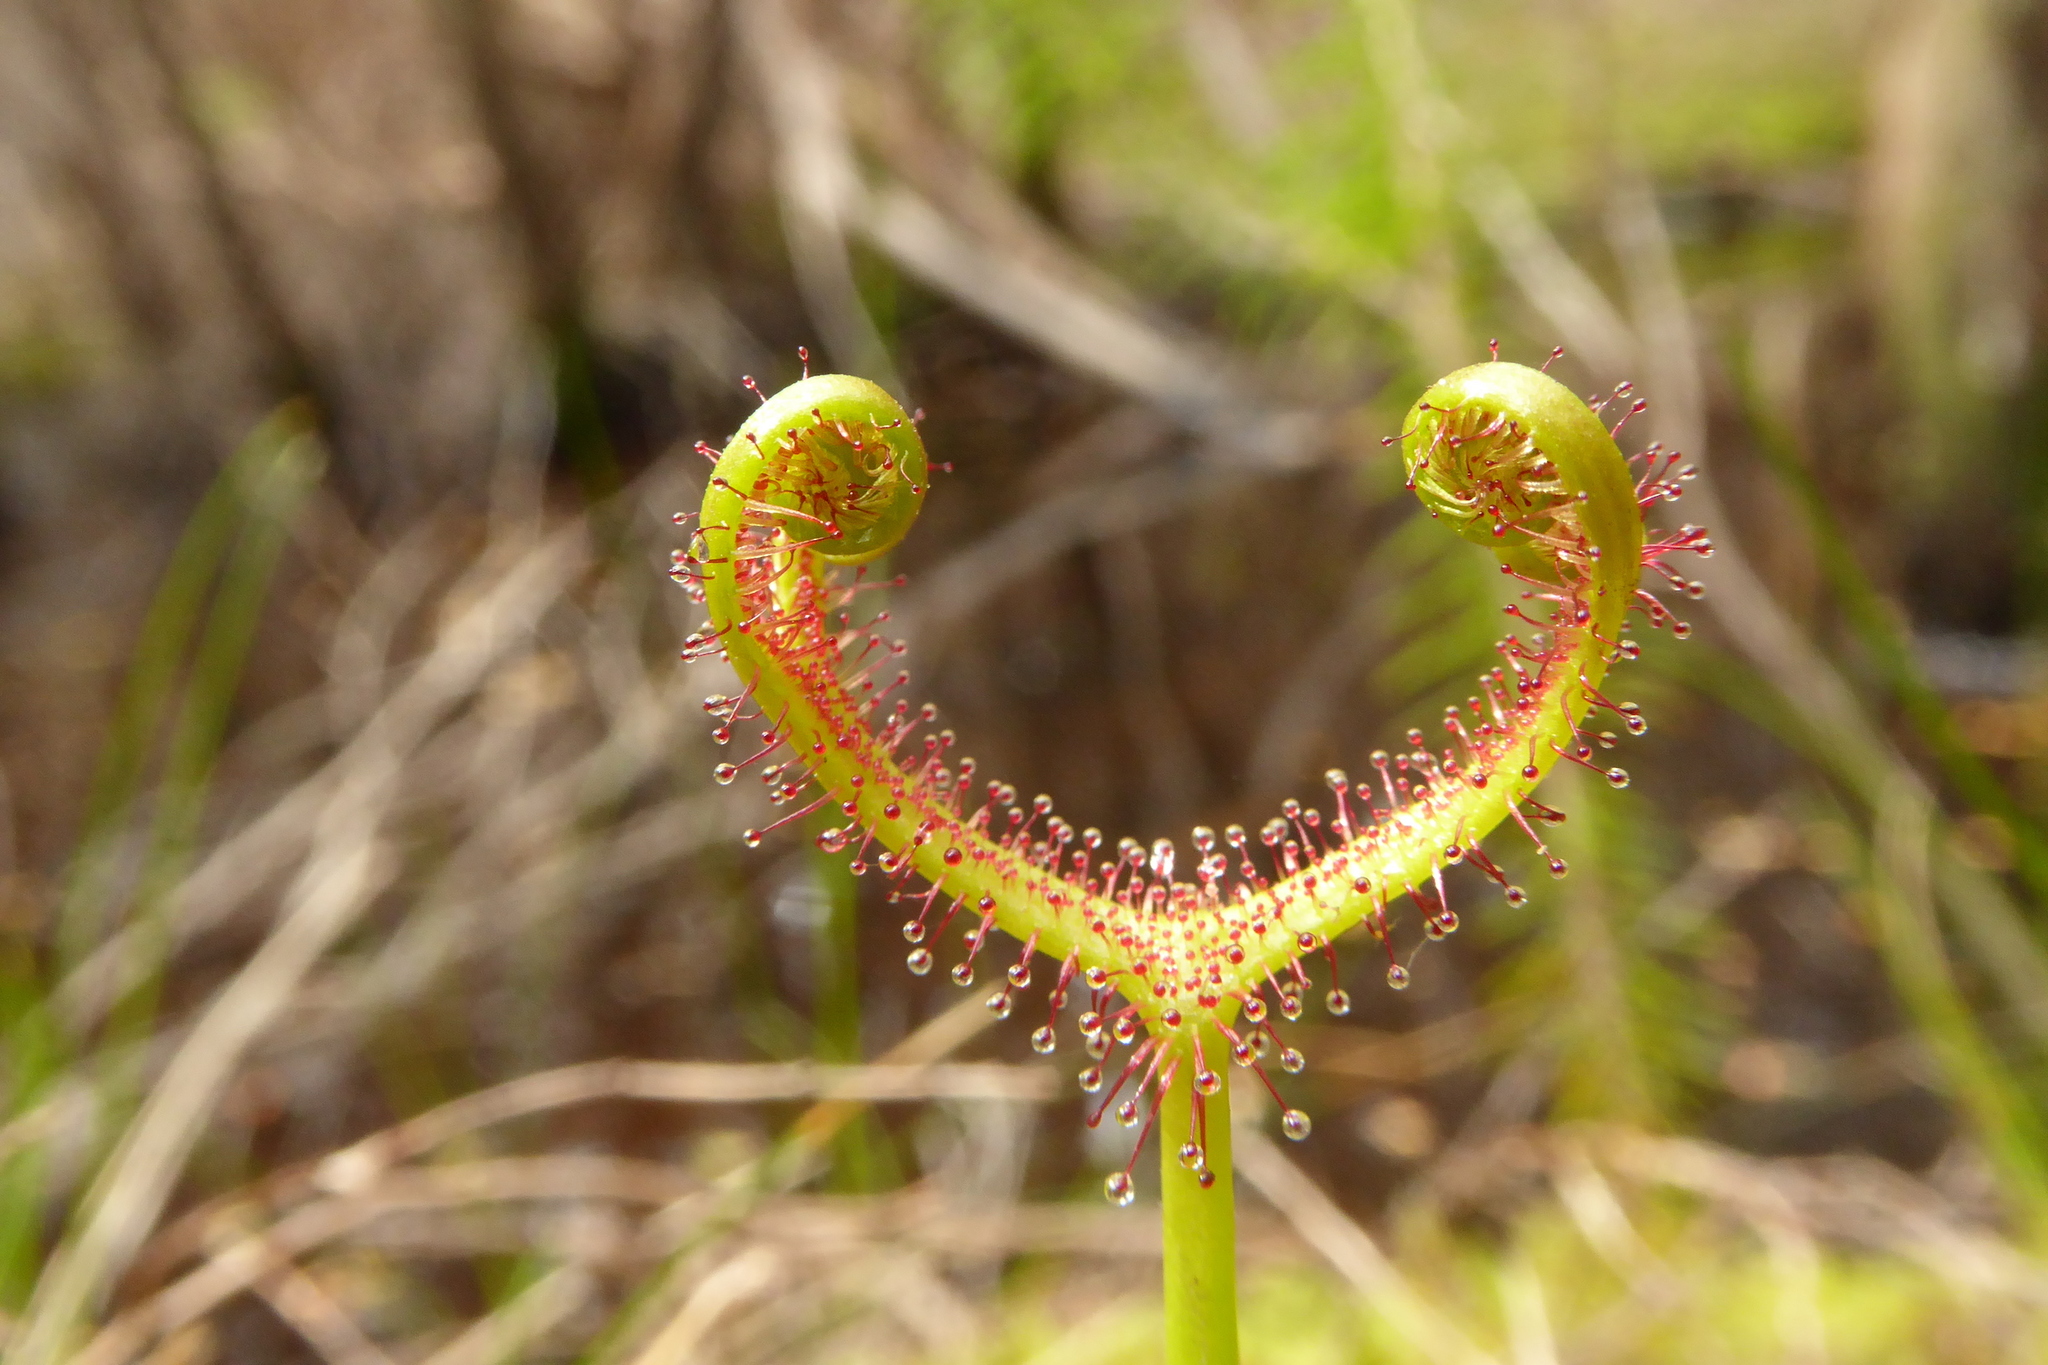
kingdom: Plantae
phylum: Tracheophyta
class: Magnoliopsida
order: Caryophyllales
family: Droseraceae
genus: Drosera
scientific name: Drosera binata
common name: Forked sundew
